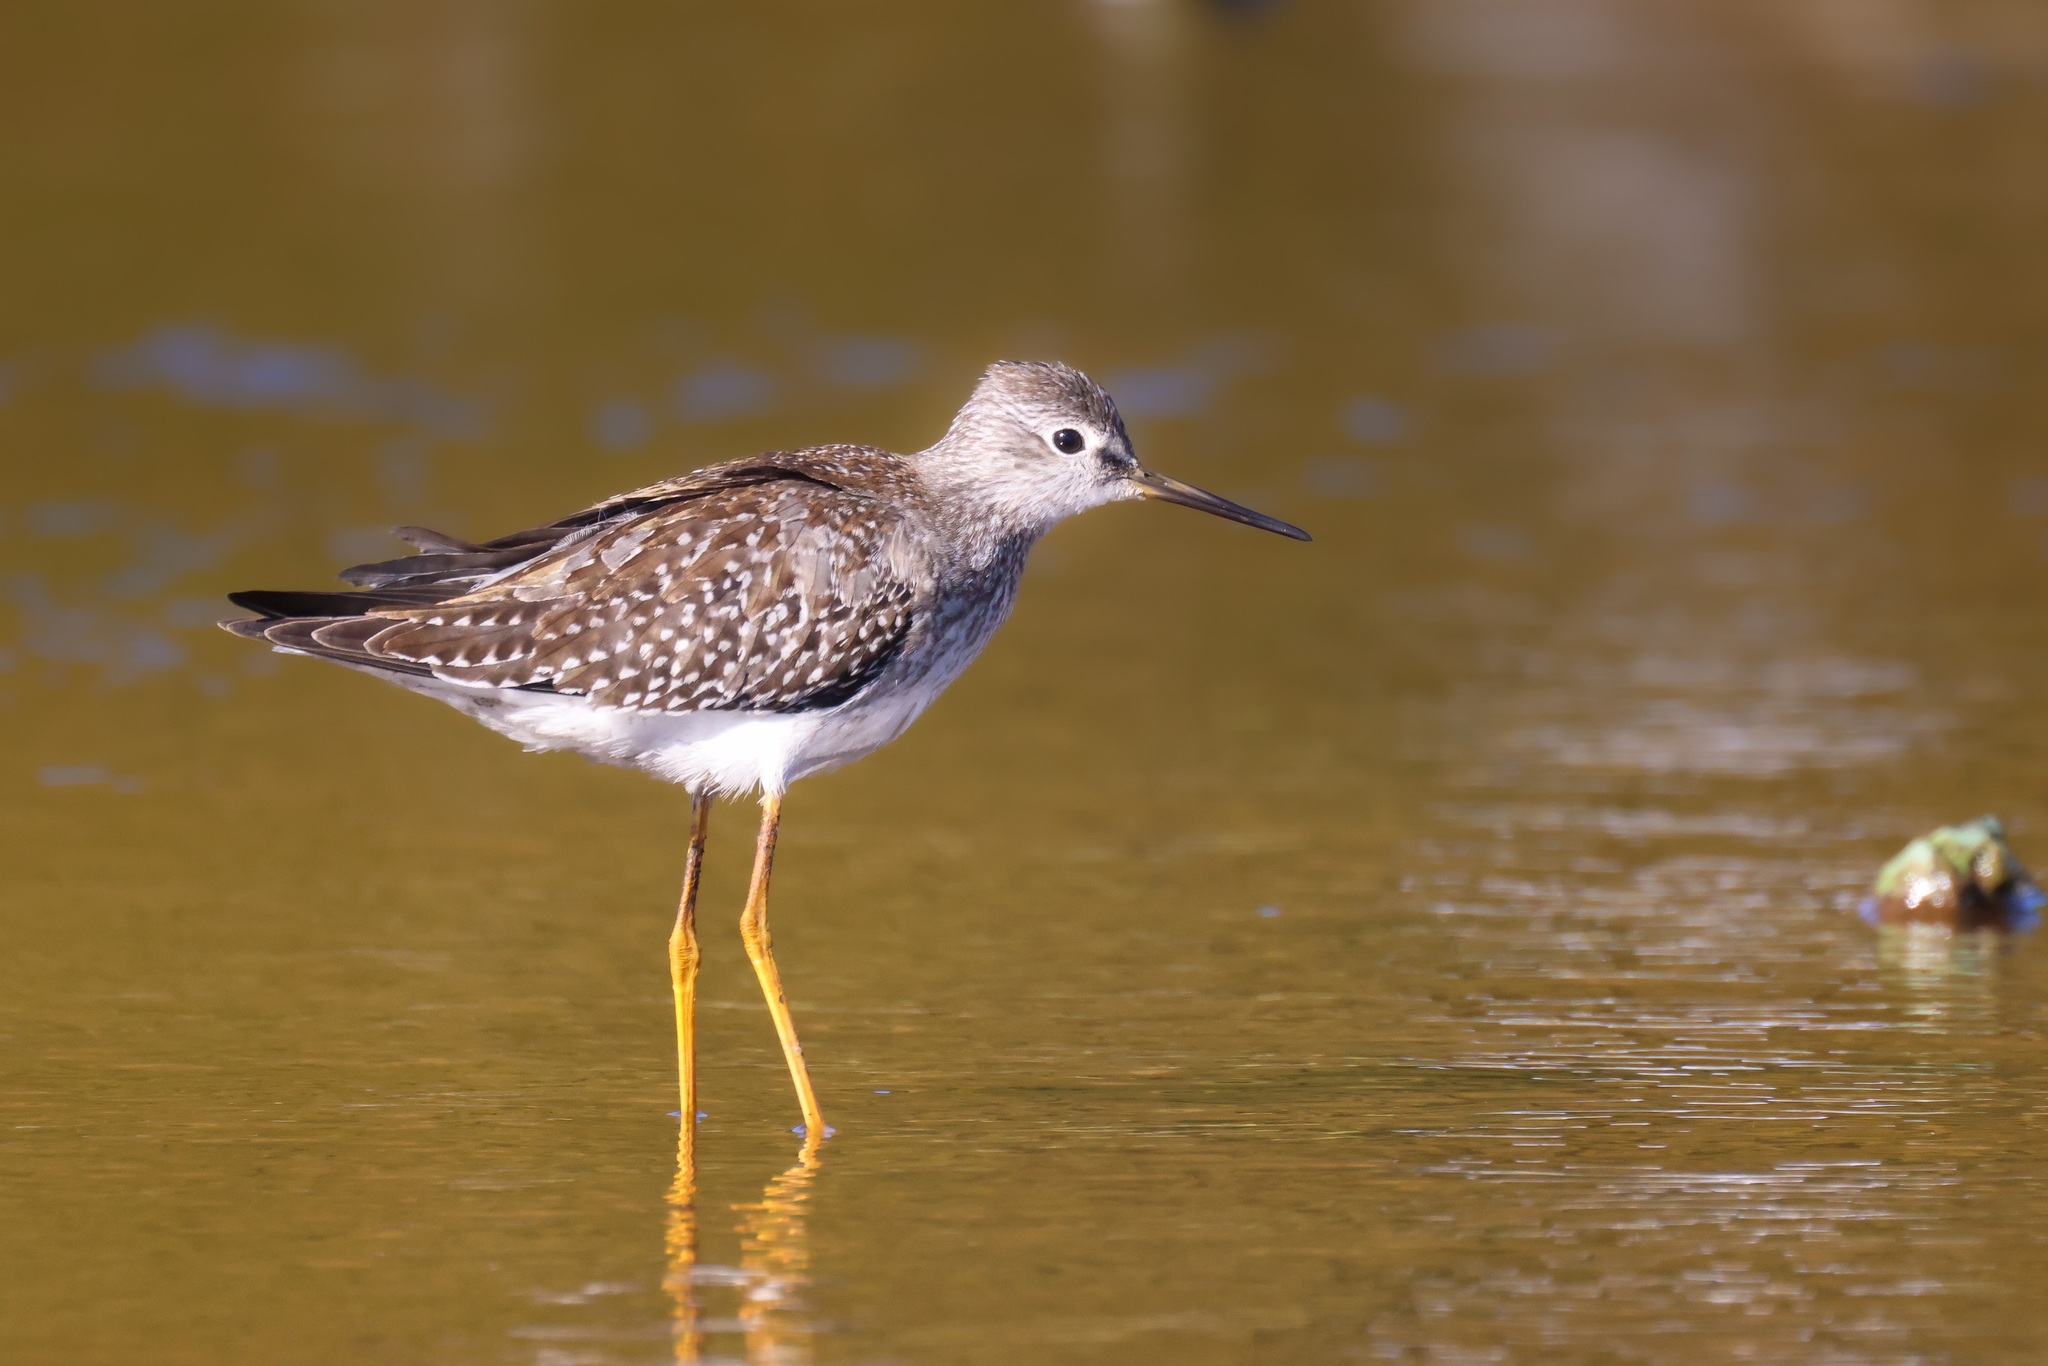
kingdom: Animalia
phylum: Chordata
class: Aves
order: Charadriiformes
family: Scolopacidae
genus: Tringa
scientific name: Tringa flavipes
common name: Lesser yellowlegs
